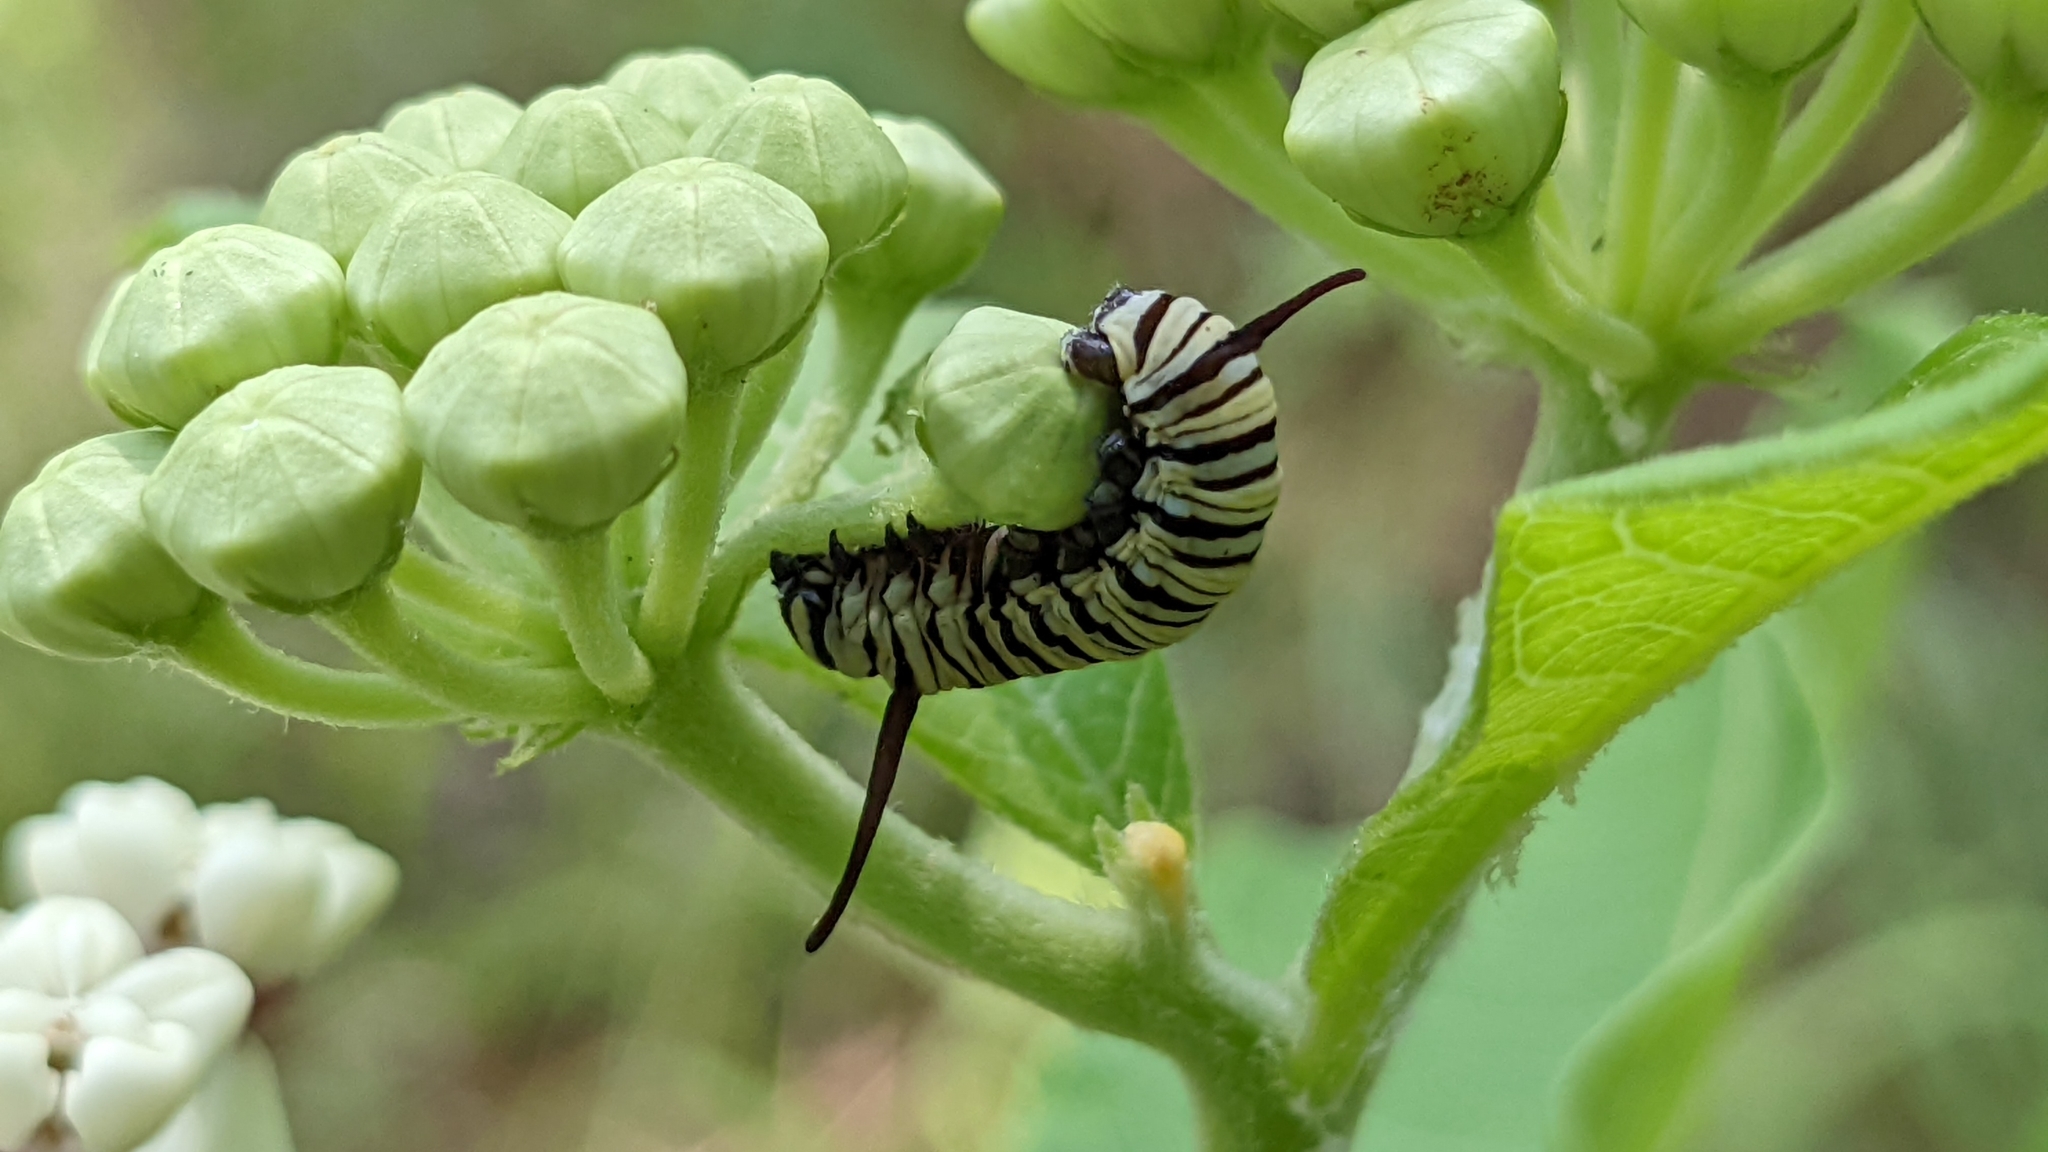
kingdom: Animalia
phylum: Arthropoda
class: Insecta
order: Lepidoptera
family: Nymphalidae
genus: Danaus
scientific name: Danaus plexippus
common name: Monarch
